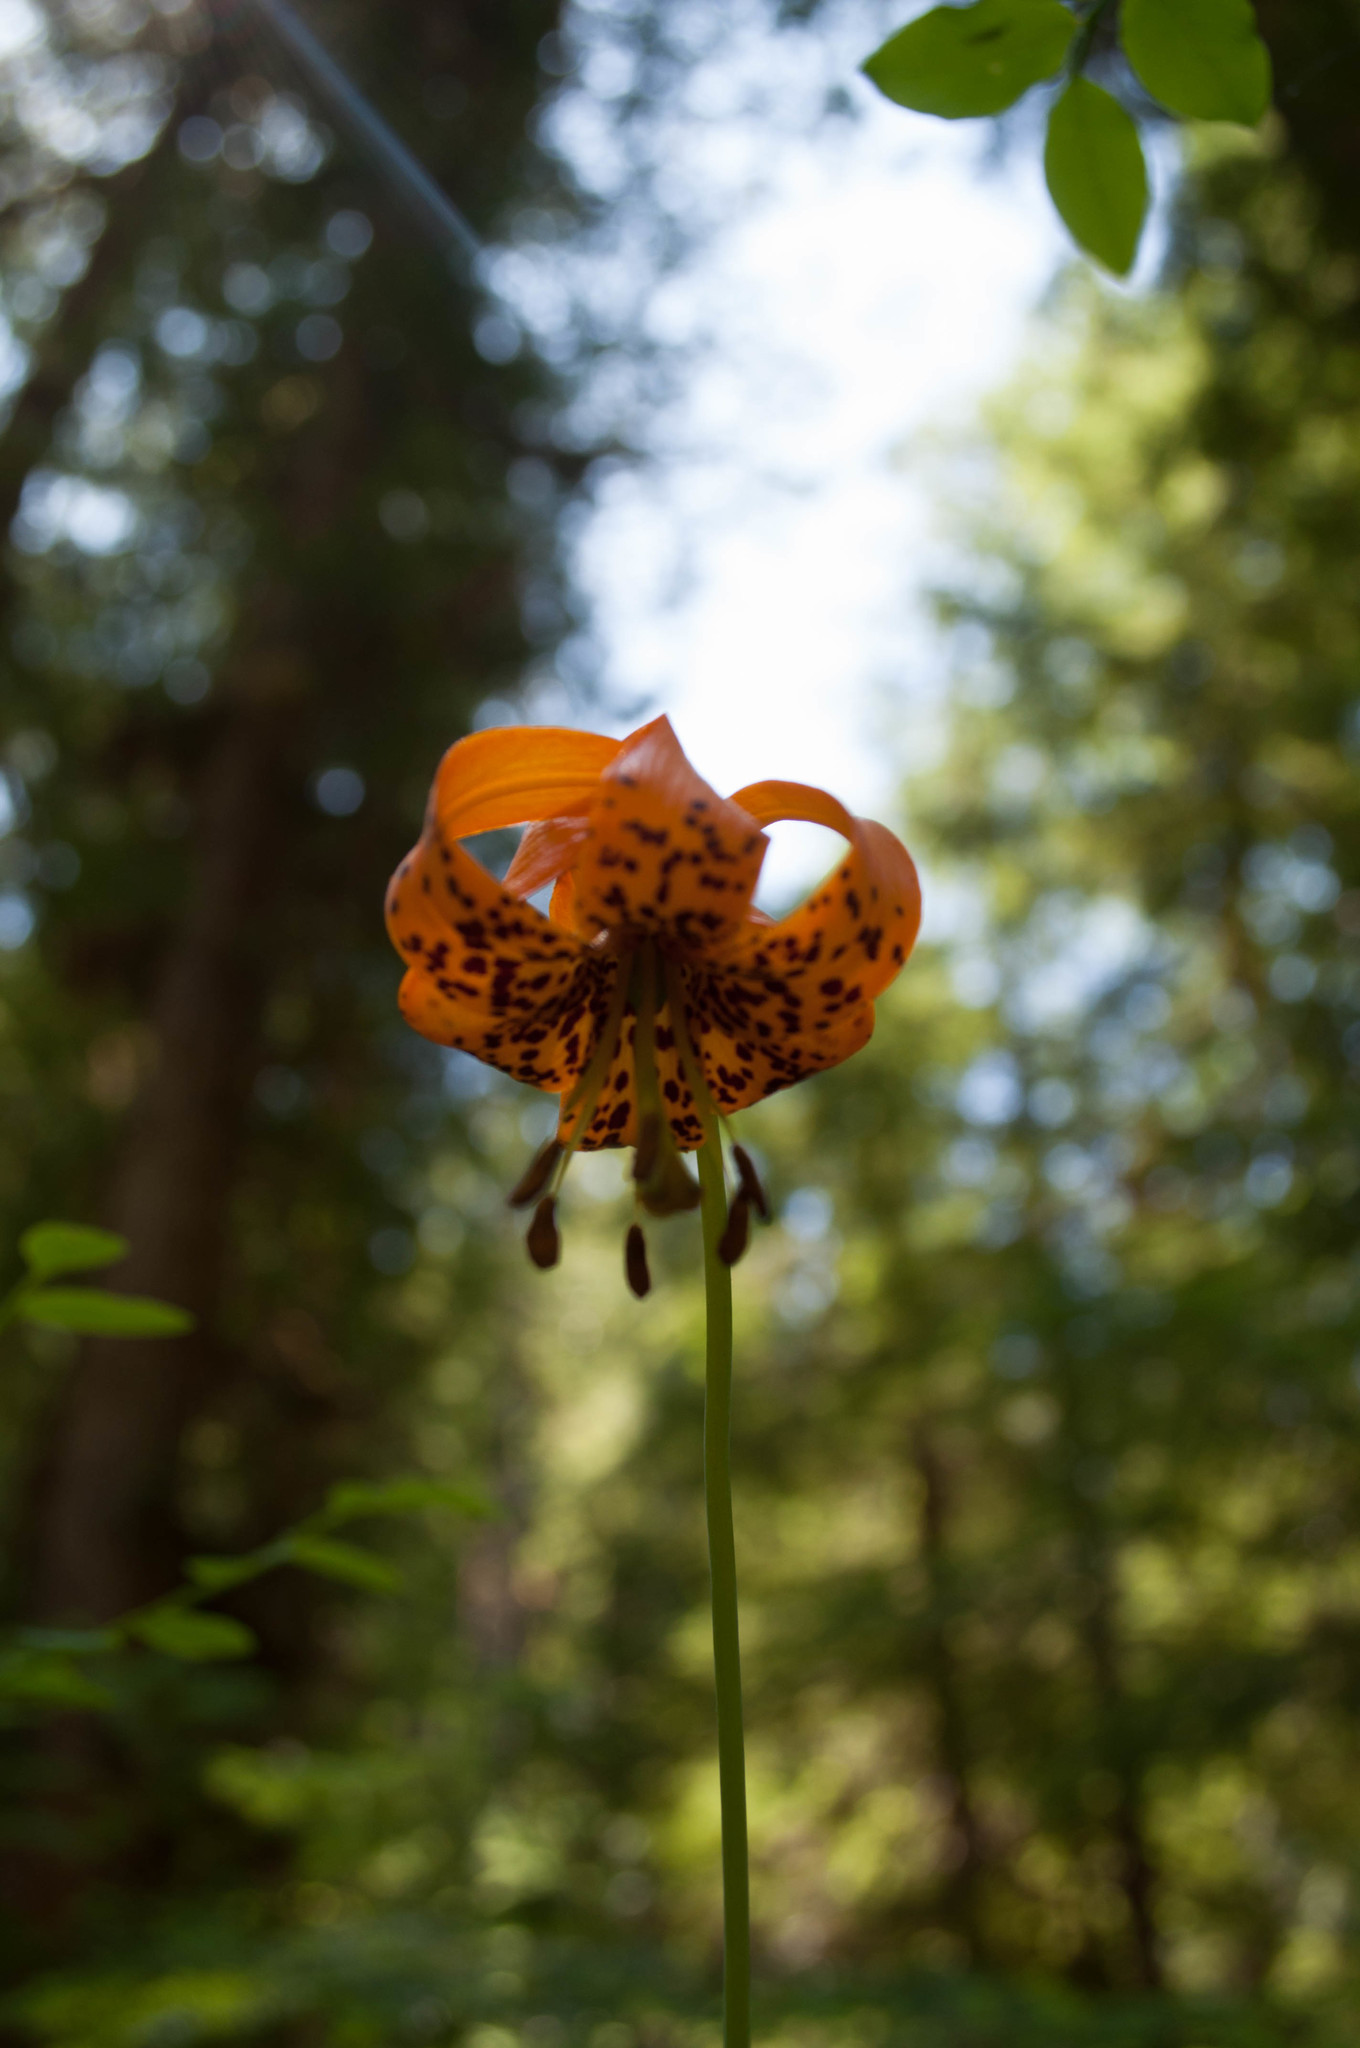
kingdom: Plantae
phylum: Tracheophyta
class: Liliopsida
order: Liliales
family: Liliaceae
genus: Lilium
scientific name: Lilium columbianum
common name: Columbia lily
